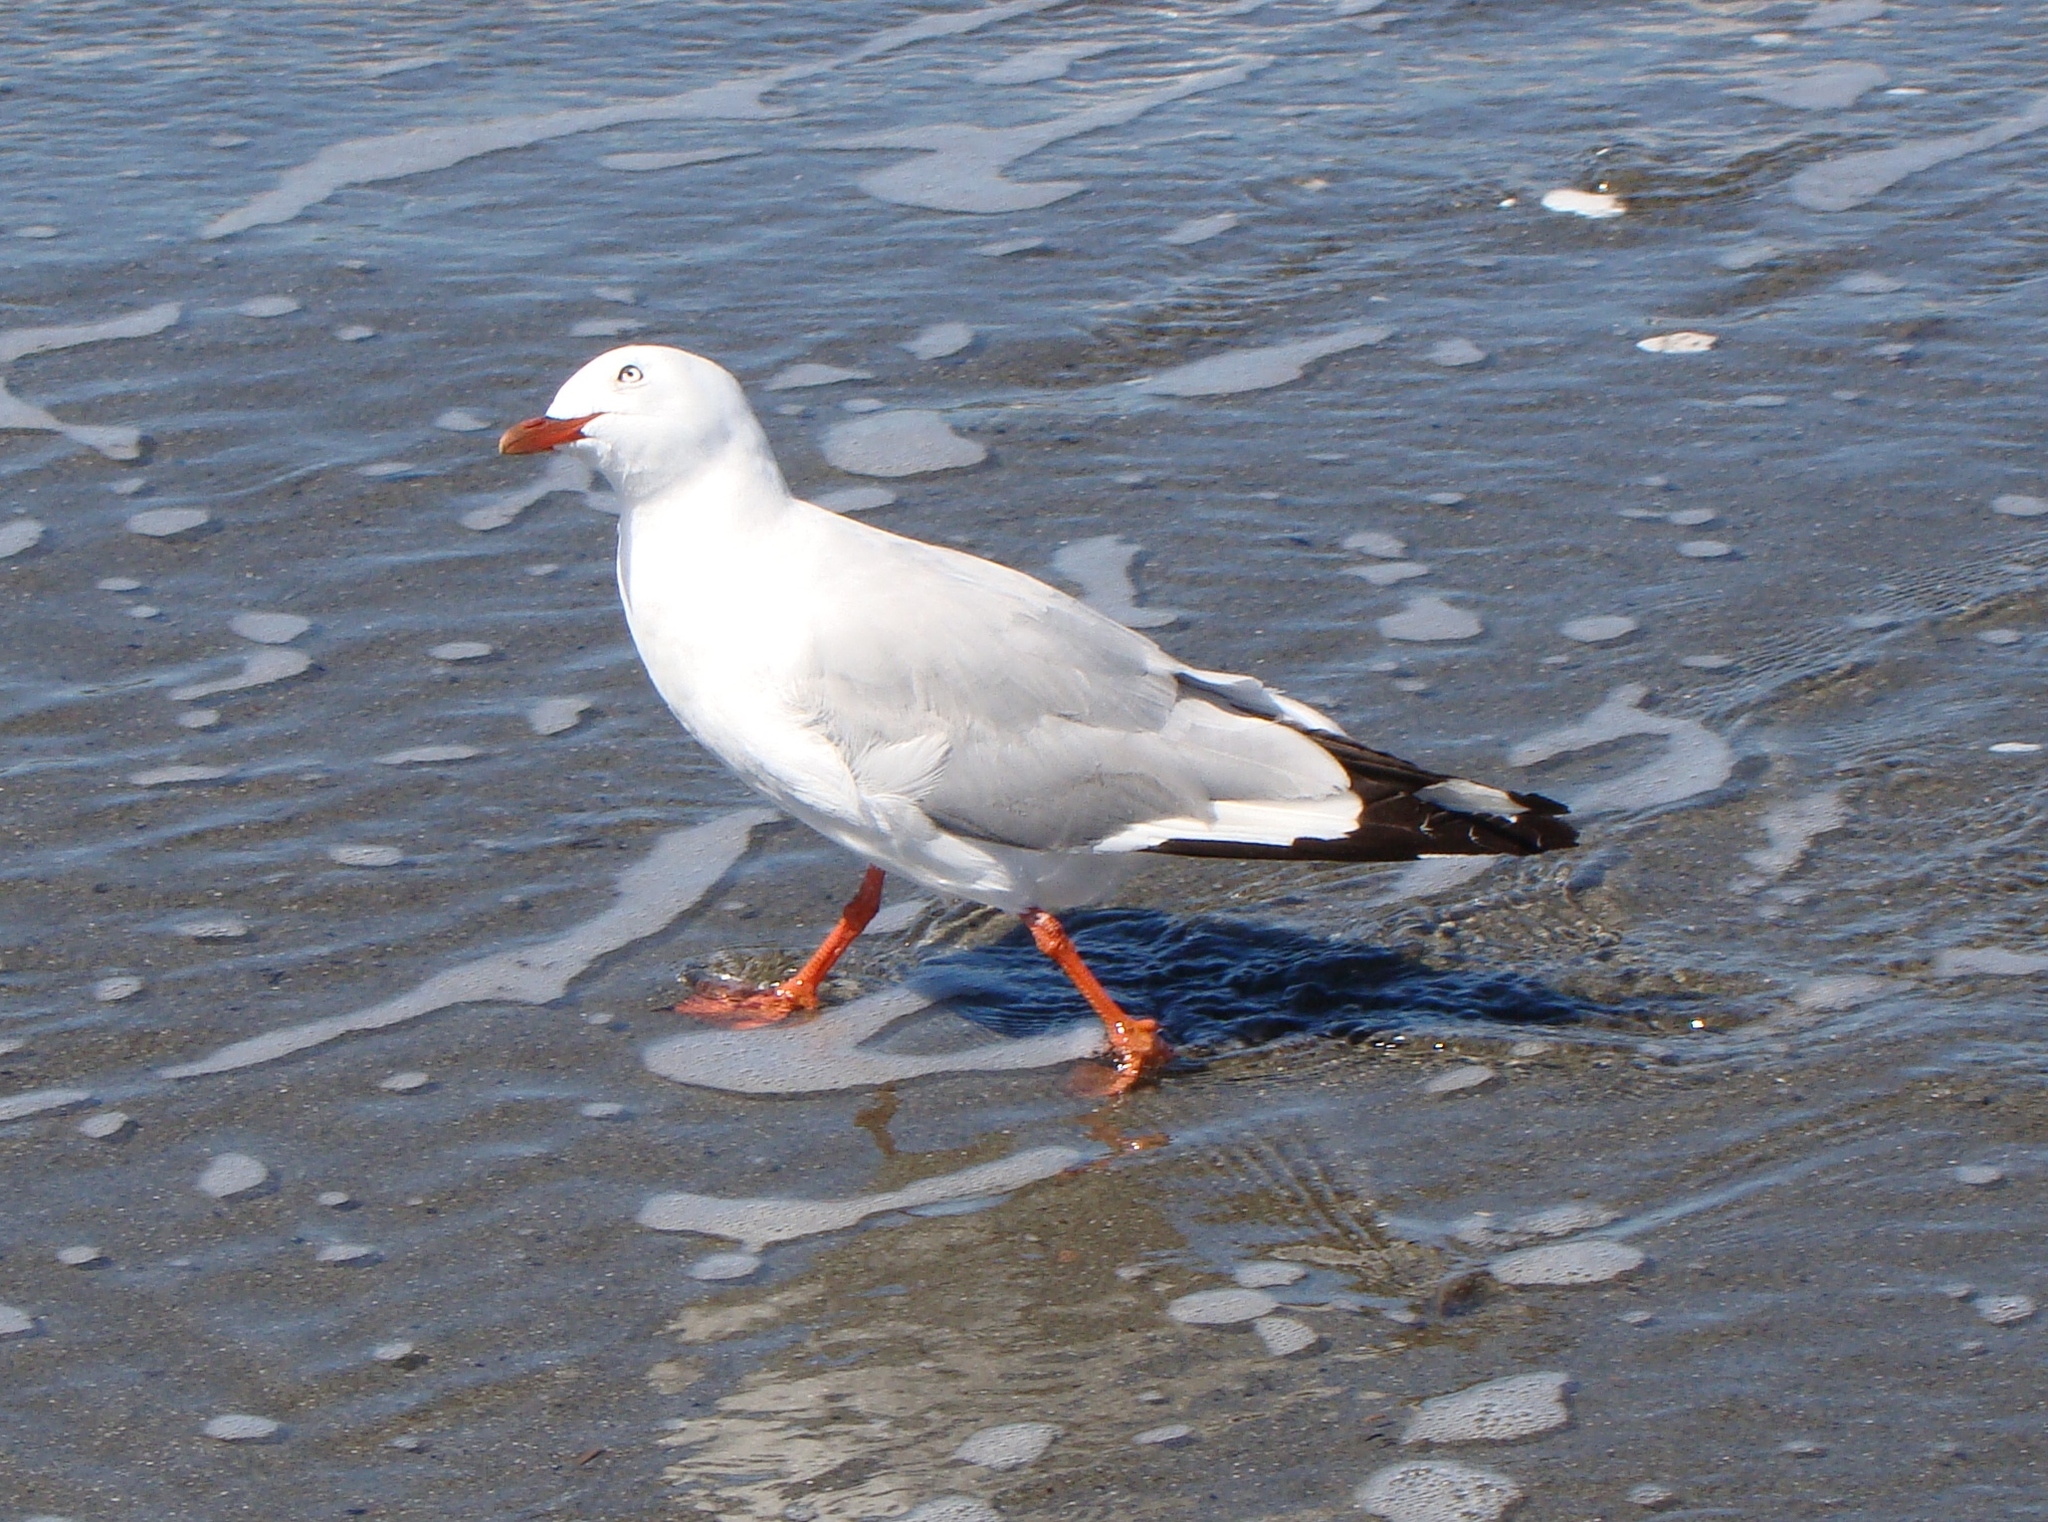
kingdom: Animalia
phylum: Chordata
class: Aves
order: Charadriiformes
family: Laridae
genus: Chroicocephalus
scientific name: Chroicocephalus novaehollandiae
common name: Silver gull
